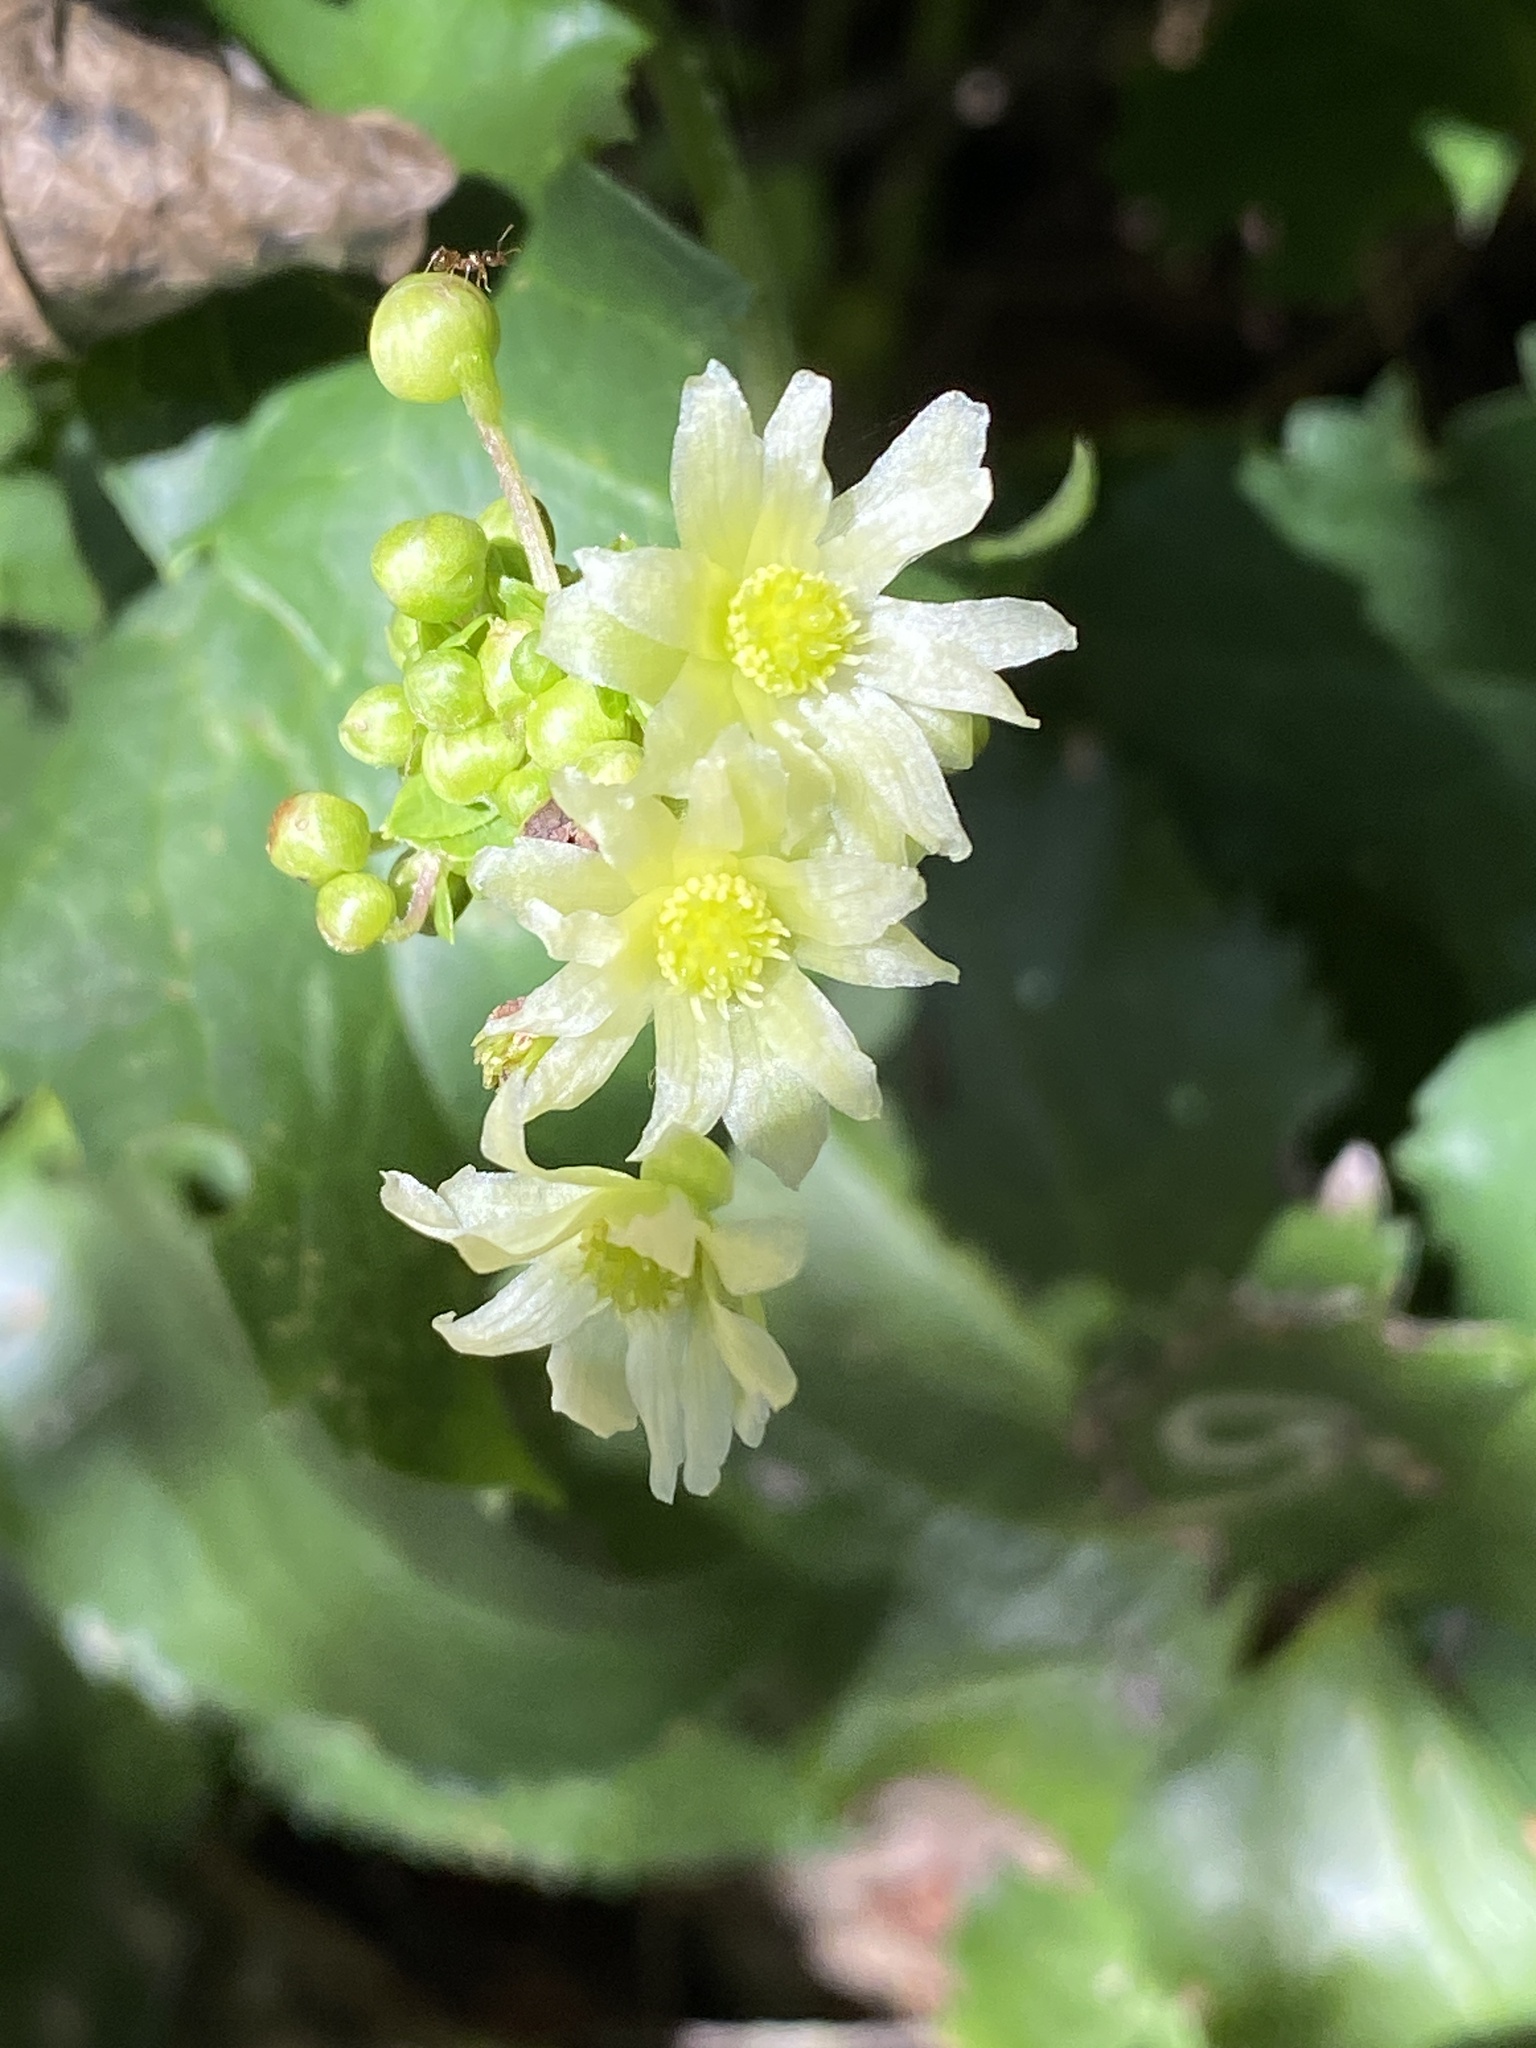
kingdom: Plantae
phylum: Tracheophyta
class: Magnoliopsida
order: Ranunculales
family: Ranunculaceae
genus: Knowltonia
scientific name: Knowltonia vesicatoria
